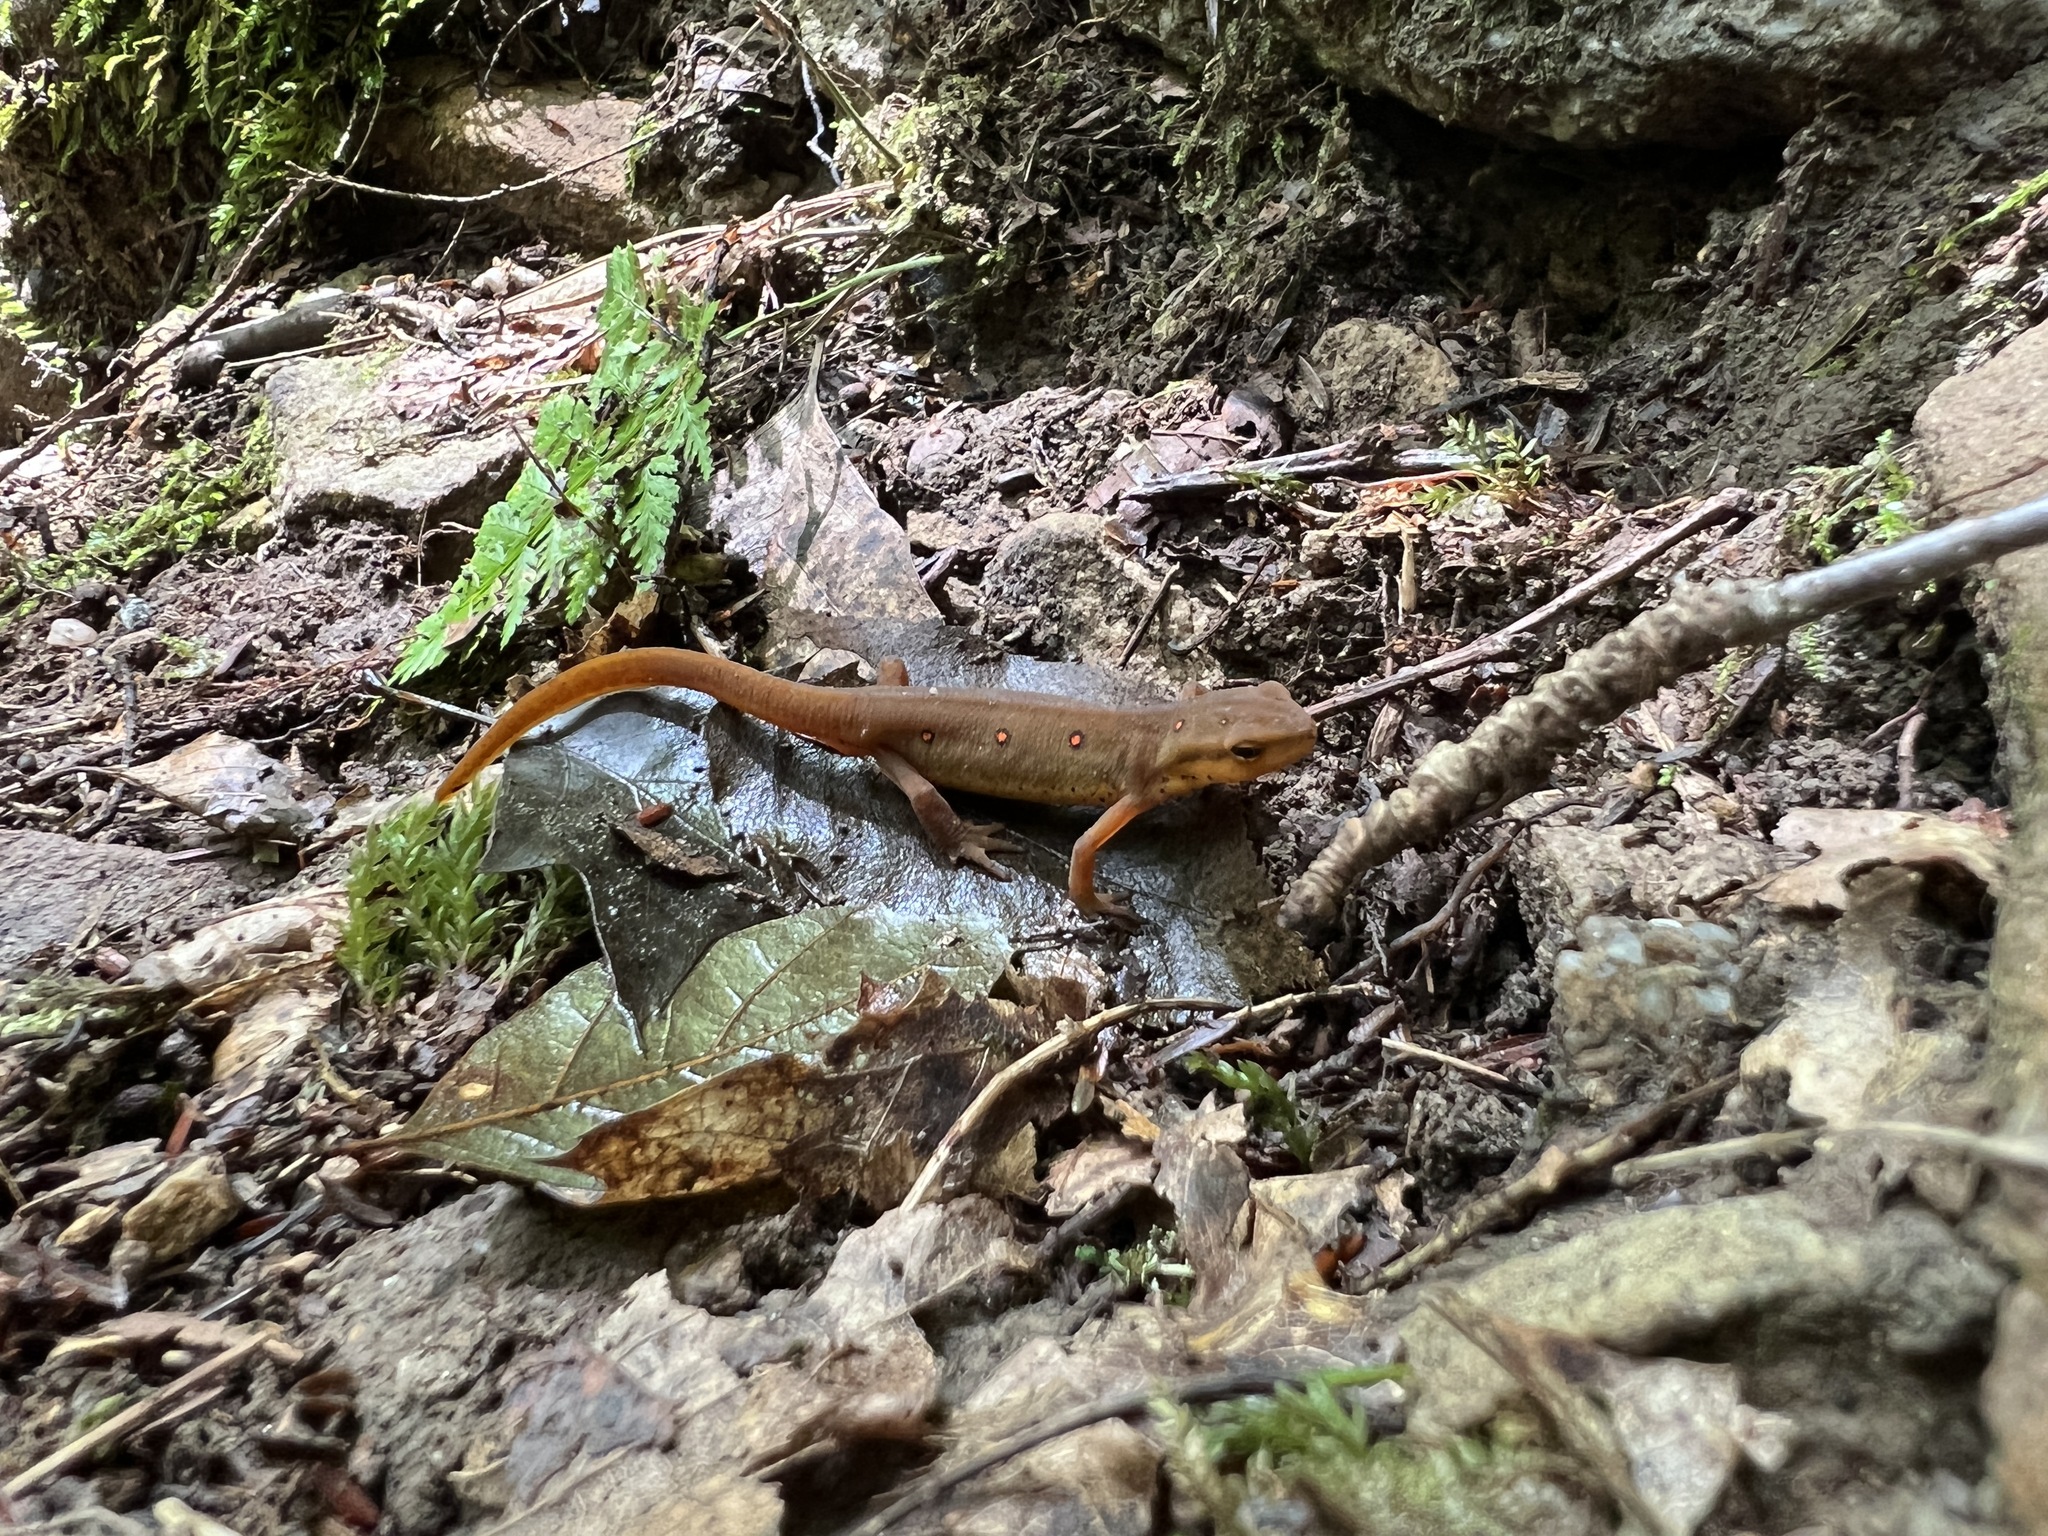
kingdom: Animalia
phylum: Chordata
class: Amphibia
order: Caudata
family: Salamandridae
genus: Notophthalmus
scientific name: Notophthalmus viridescens
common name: Eastern newt
